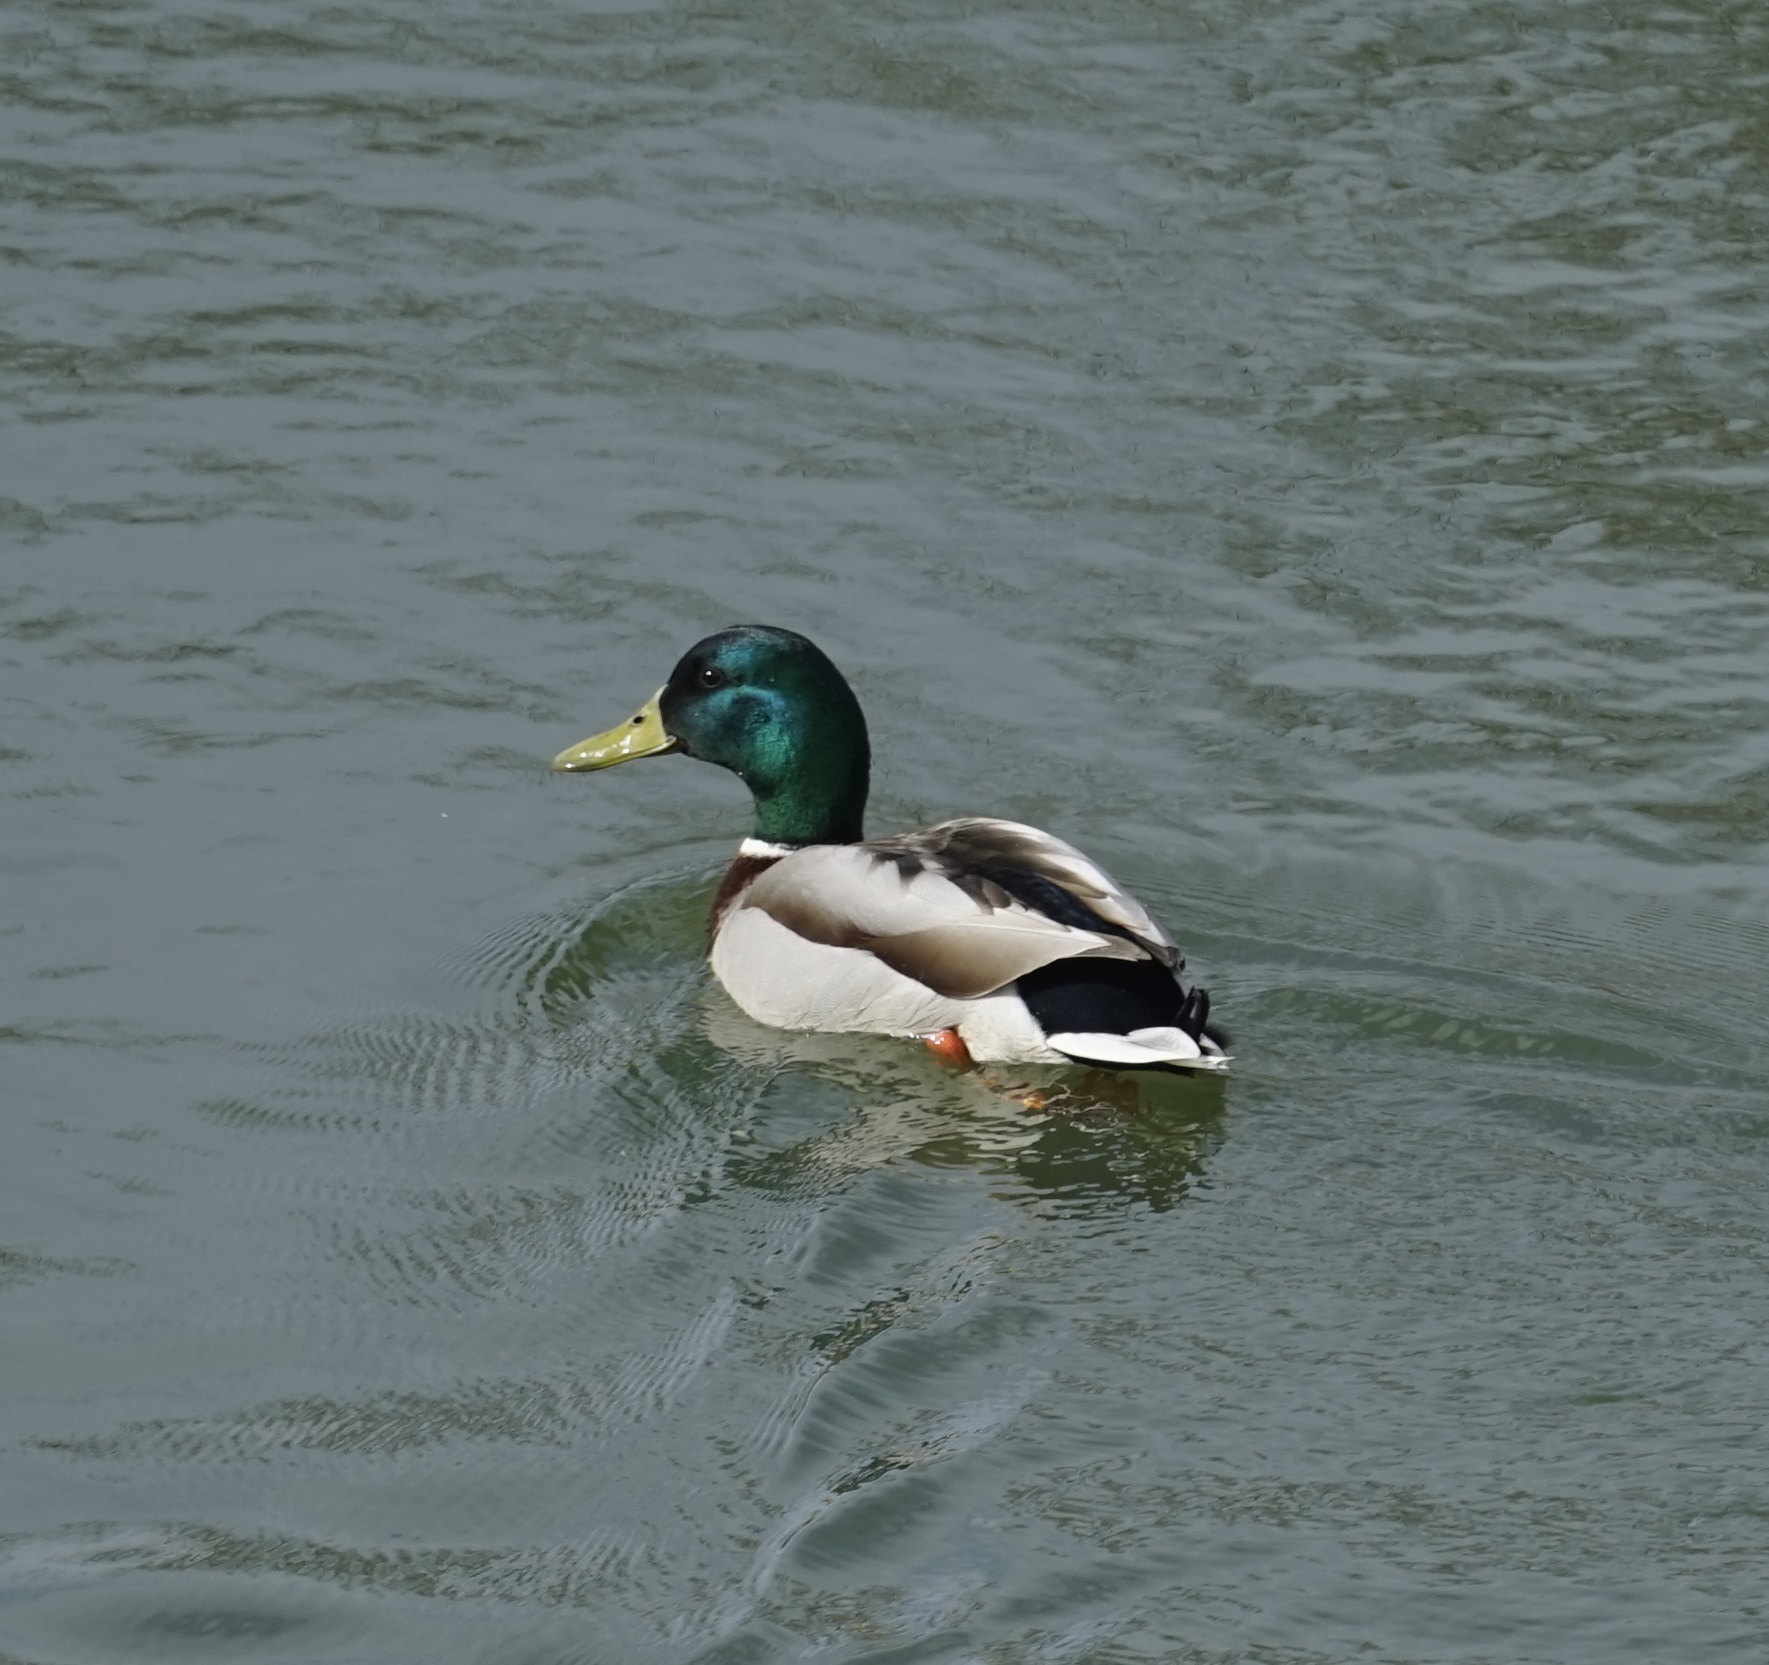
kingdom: Animalia
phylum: Chordata
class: Aves
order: Anseriformes
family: Anatidae
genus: Anas
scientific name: Anas platyrhynchos
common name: Mallard
